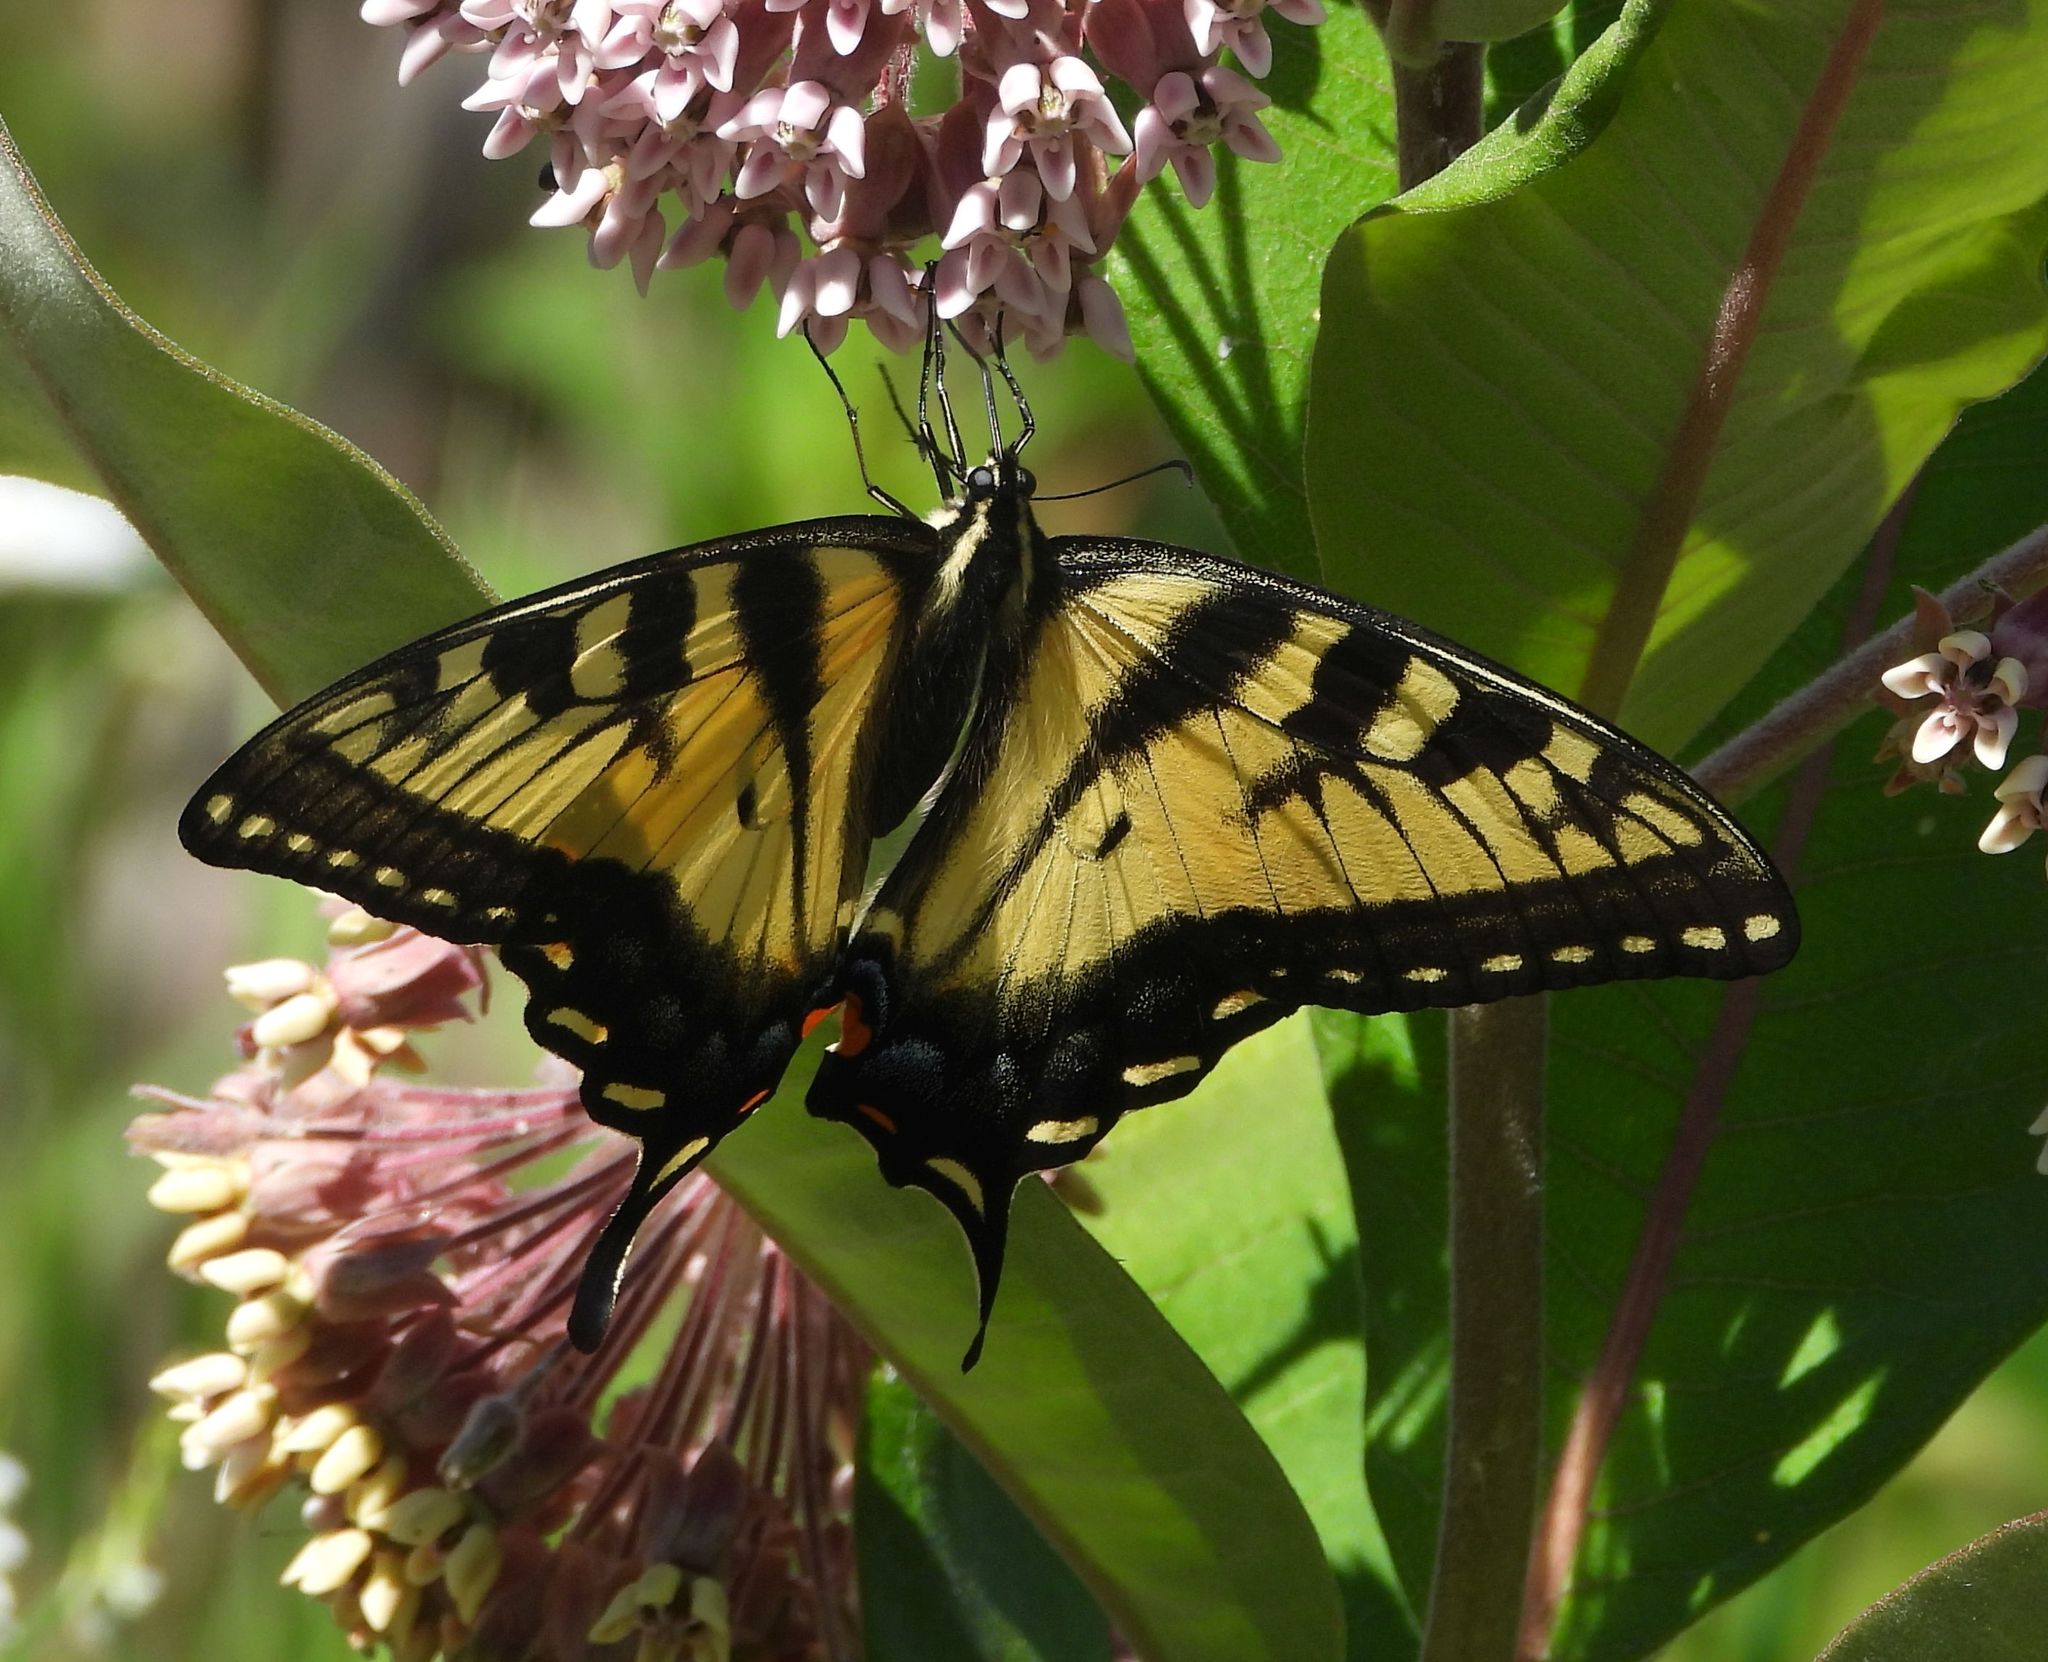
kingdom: Animalia
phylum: Arthropoda
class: Insecta
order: Lepidoptera
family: Papilionidae
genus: Papilio
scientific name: Papilio
